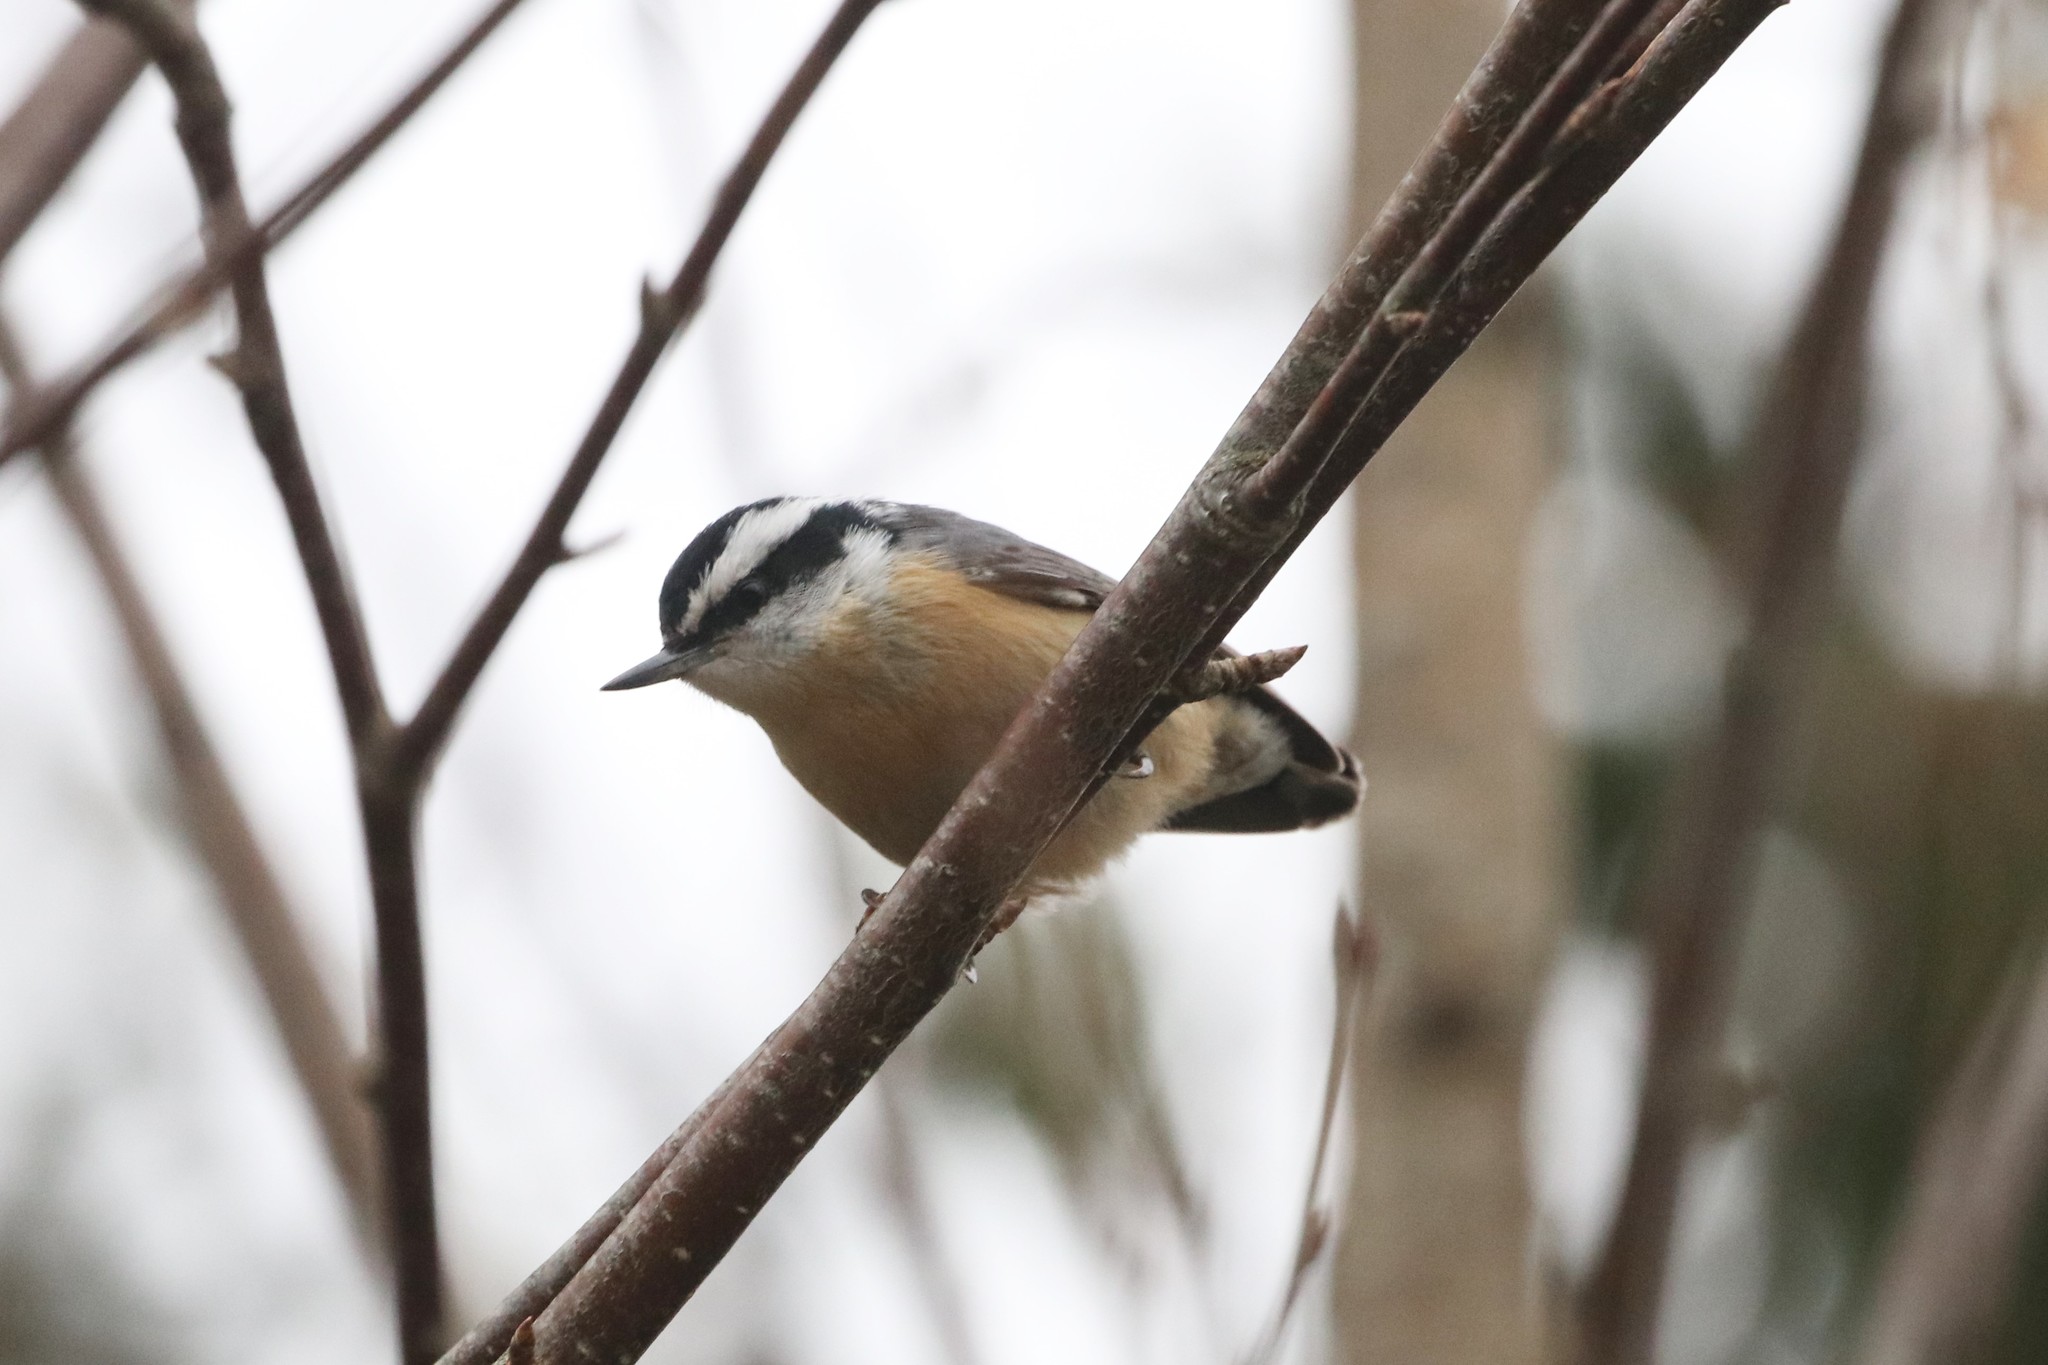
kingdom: Animalia
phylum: Chordata
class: Aves
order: Passeriformes
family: Sittidae
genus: Sitta
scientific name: Sitta canadensis
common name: Red-breasted nuthatch
